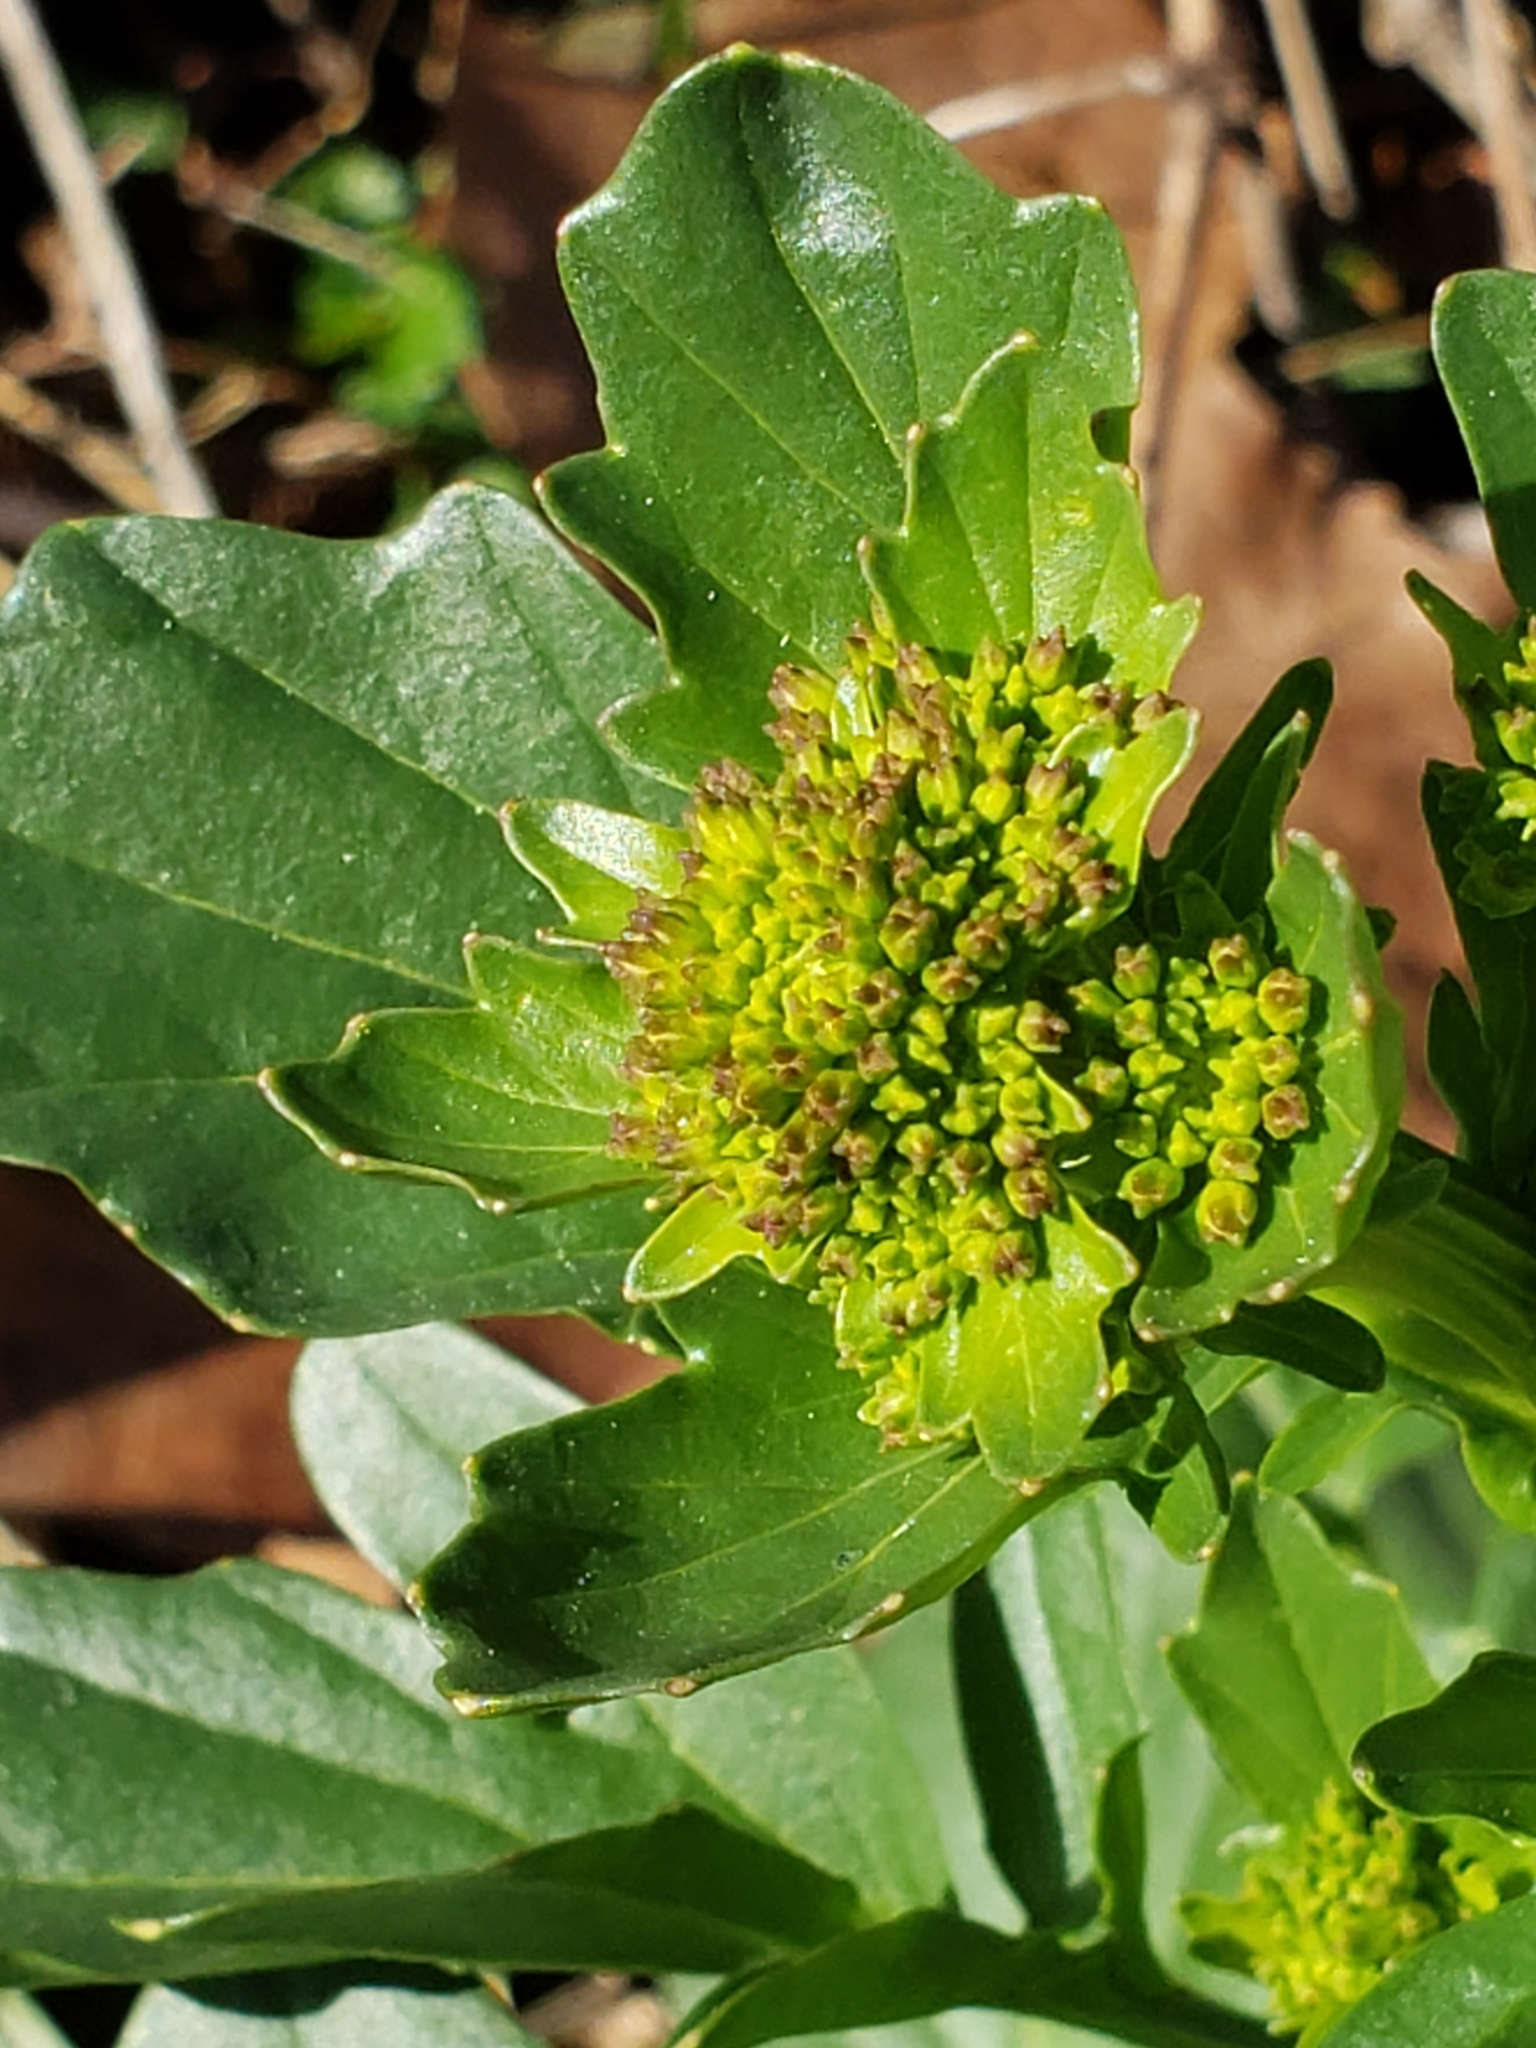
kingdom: Plantae
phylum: Tracheophyta
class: Magnoliopsida
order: Brassicales
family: Brassicaceae
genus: Barbarea
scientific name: Barbarea vulgaris
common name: Cressy-greens
